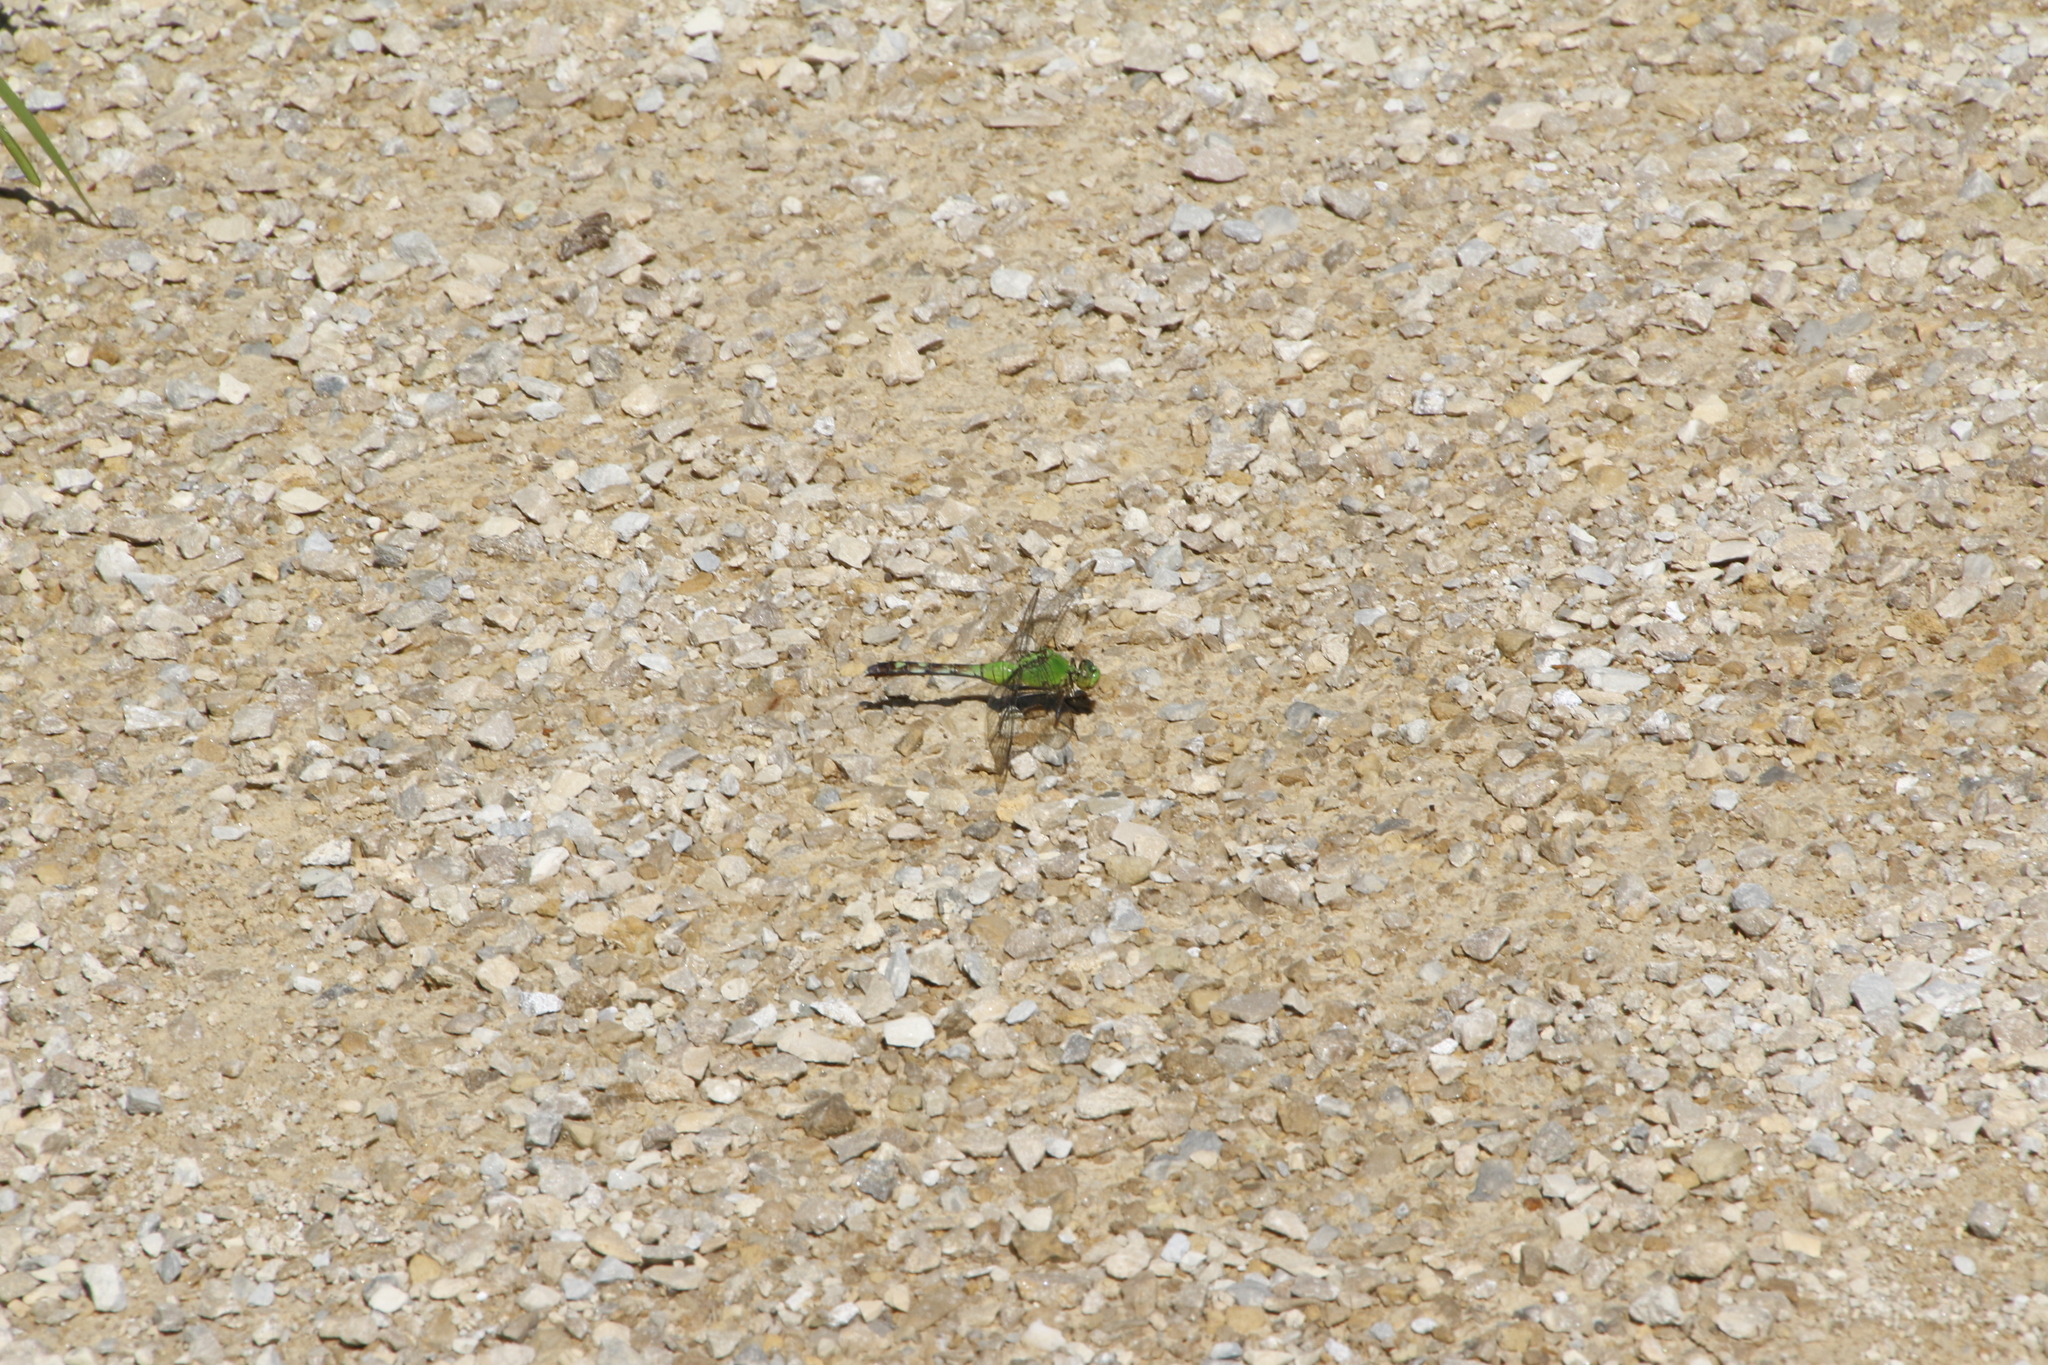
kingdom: Animalia
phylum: Arthropoda
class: Insecta
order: Odonata
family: Libellulidae
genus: Erythemis
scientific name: Erythemis simplicicollis
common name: Eastern pondhawk
